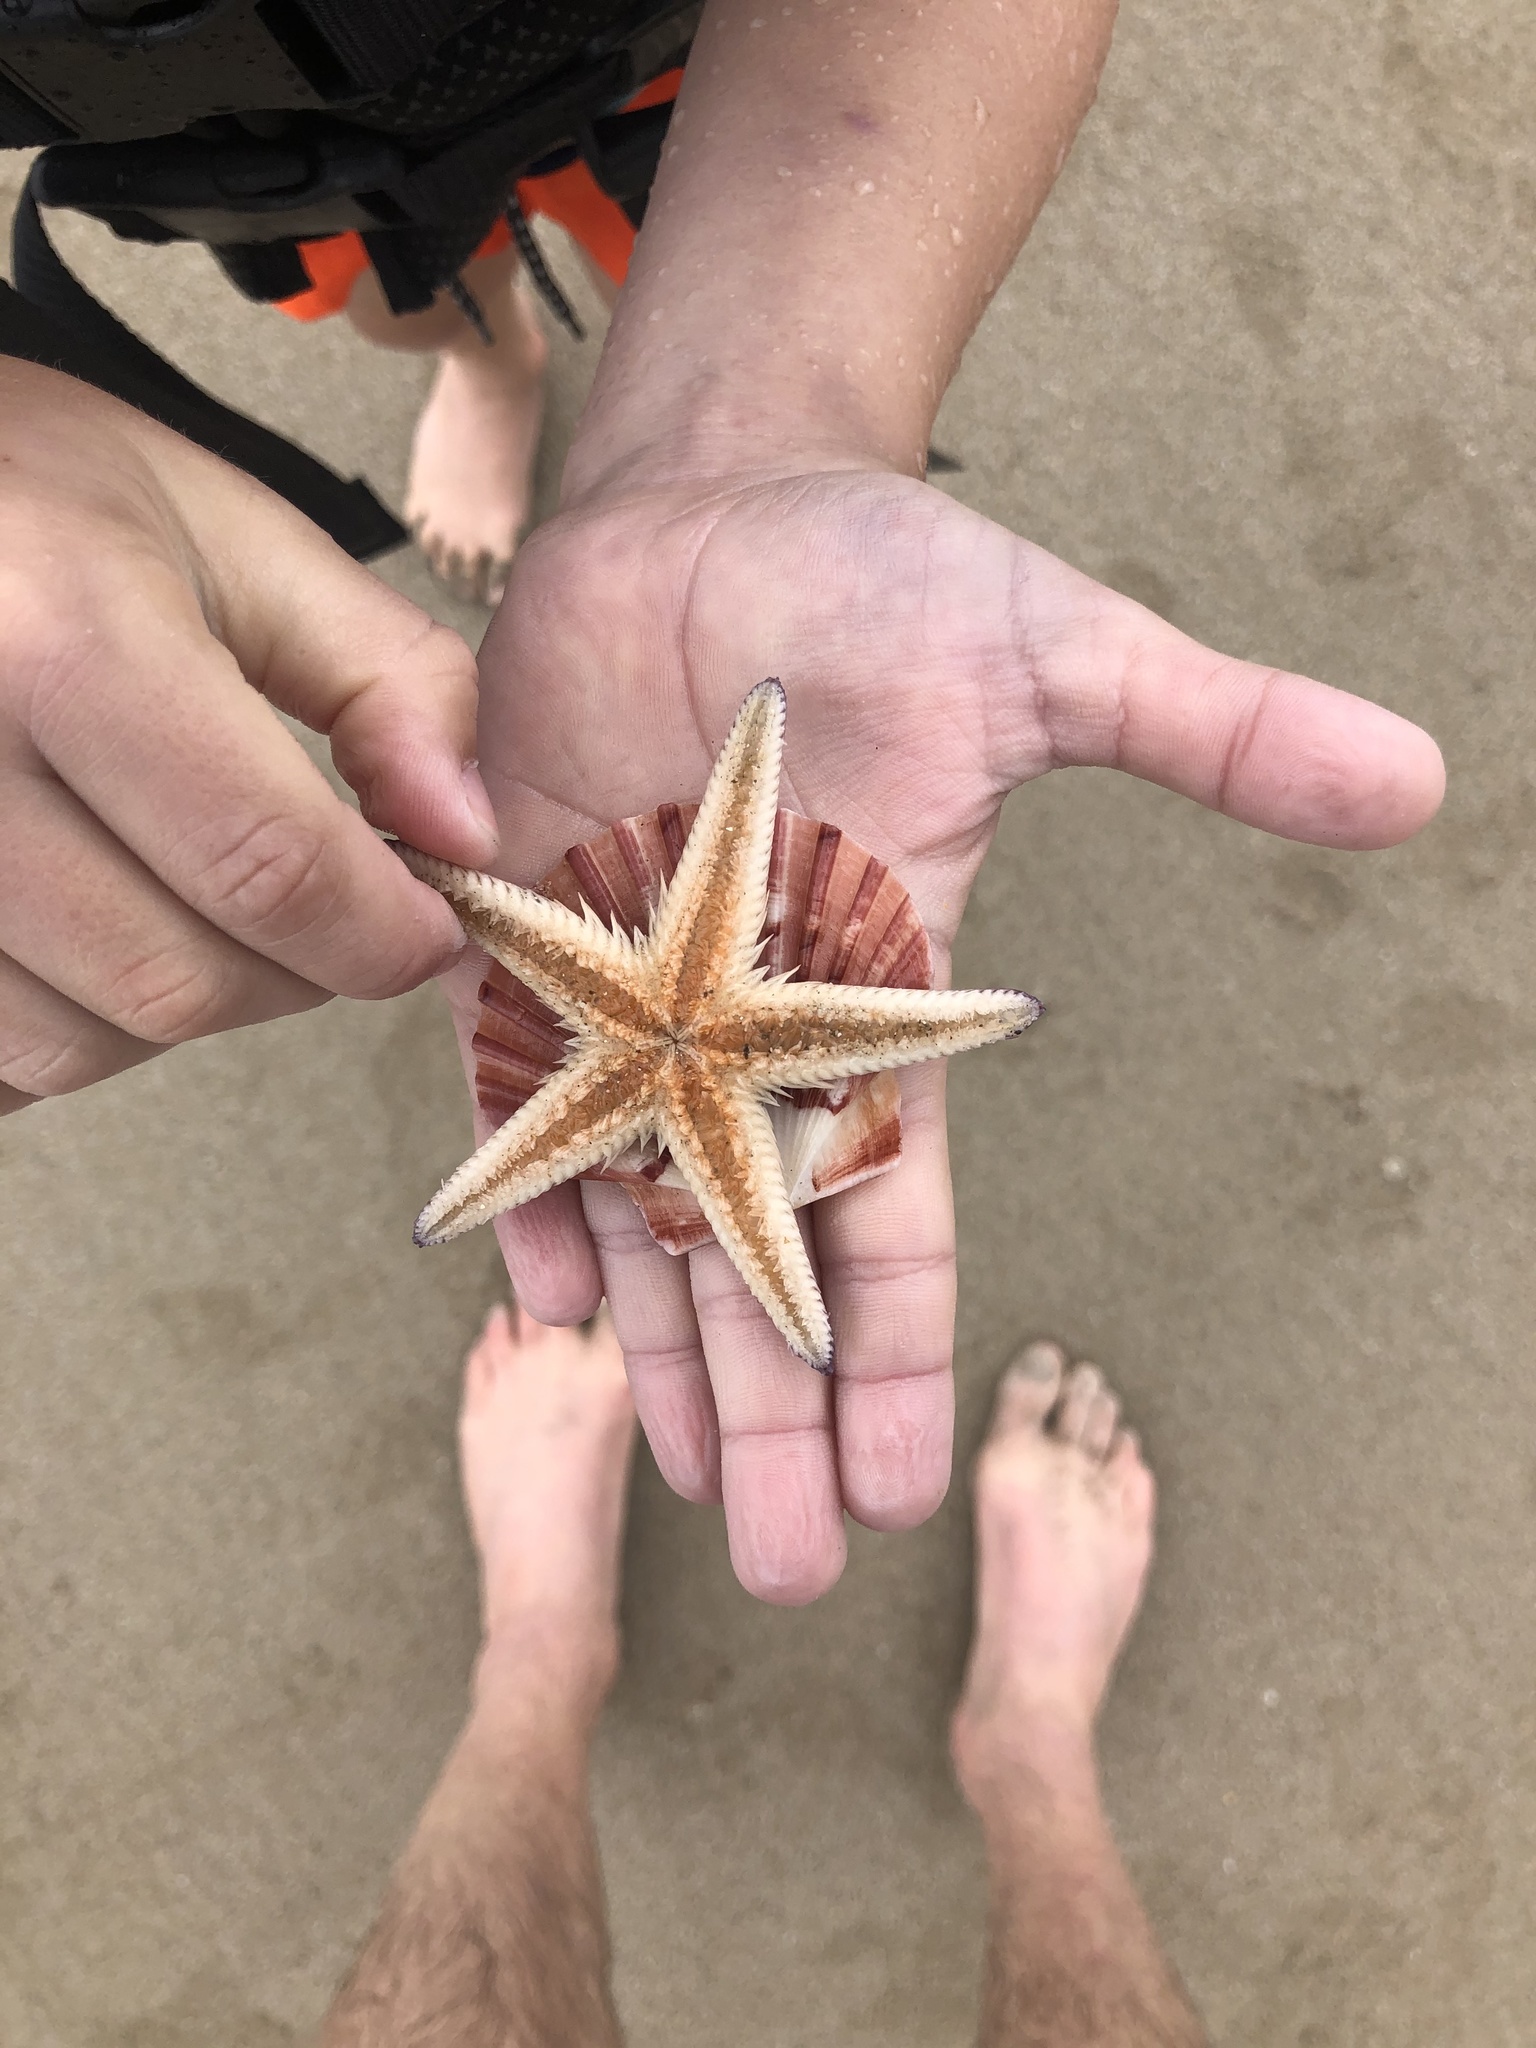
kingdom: Animalia
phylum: Echinodermata
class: Asteroidea
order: Paxillosida
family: Astropectinidae
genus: Astropecten
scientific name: Astropecten polyacanthus
